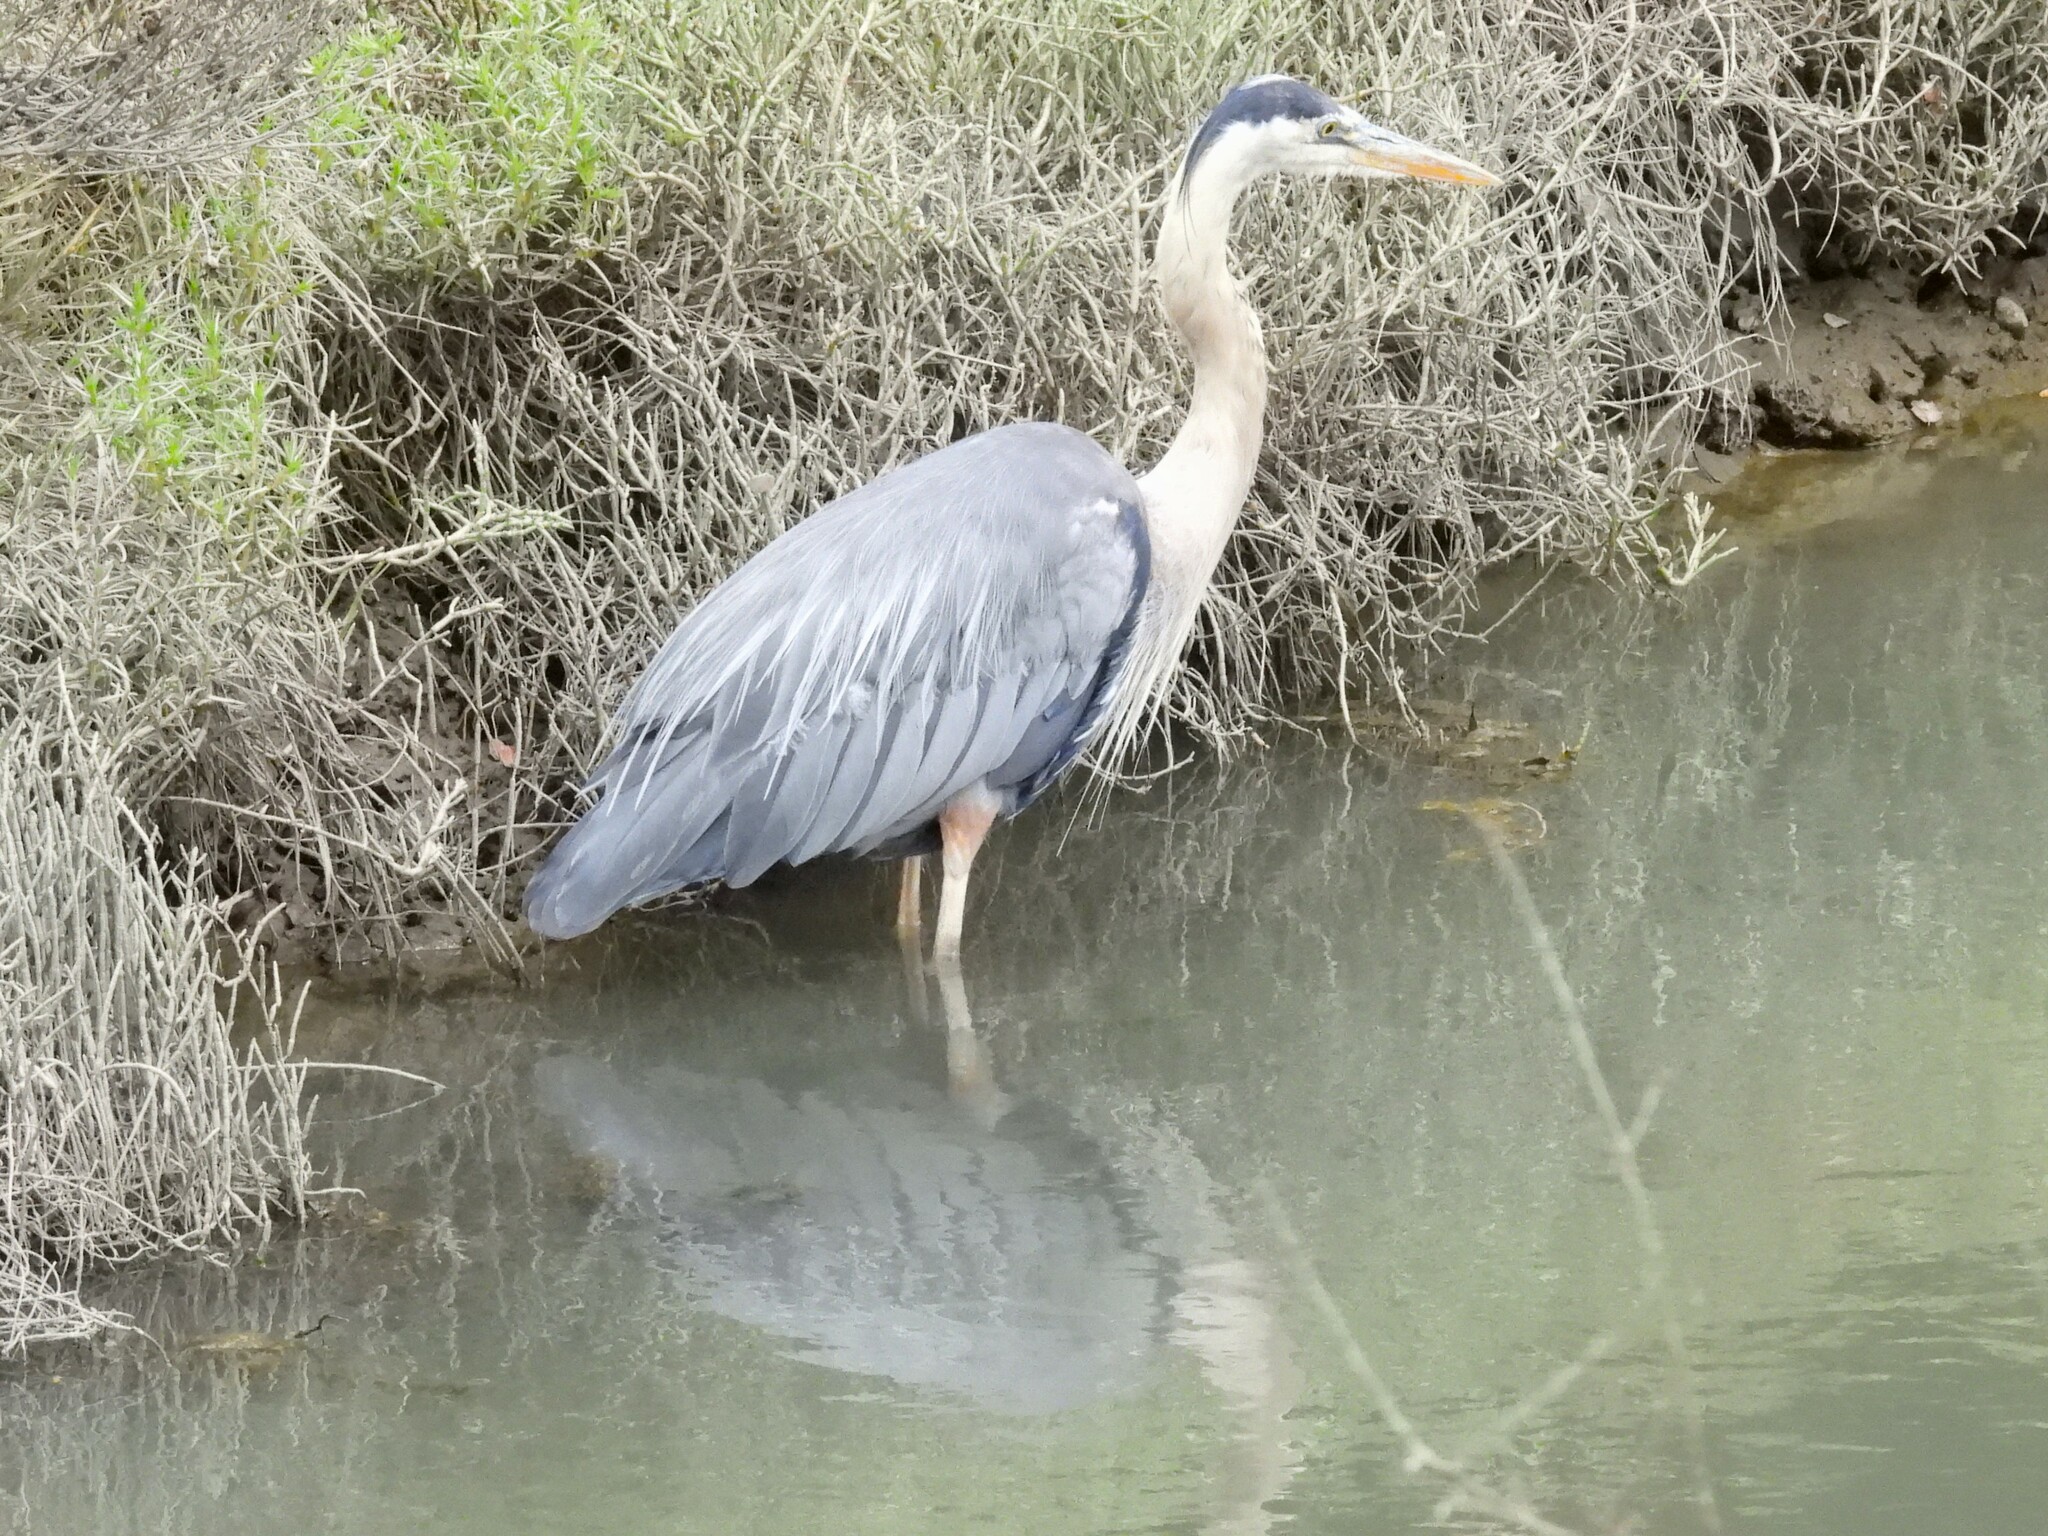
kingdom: Animalia
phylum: Chordata
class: Aves
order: Pelecaniformes
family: Ardeidae
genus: Ardea
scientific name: Ardea herodias
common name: Great blue heron
